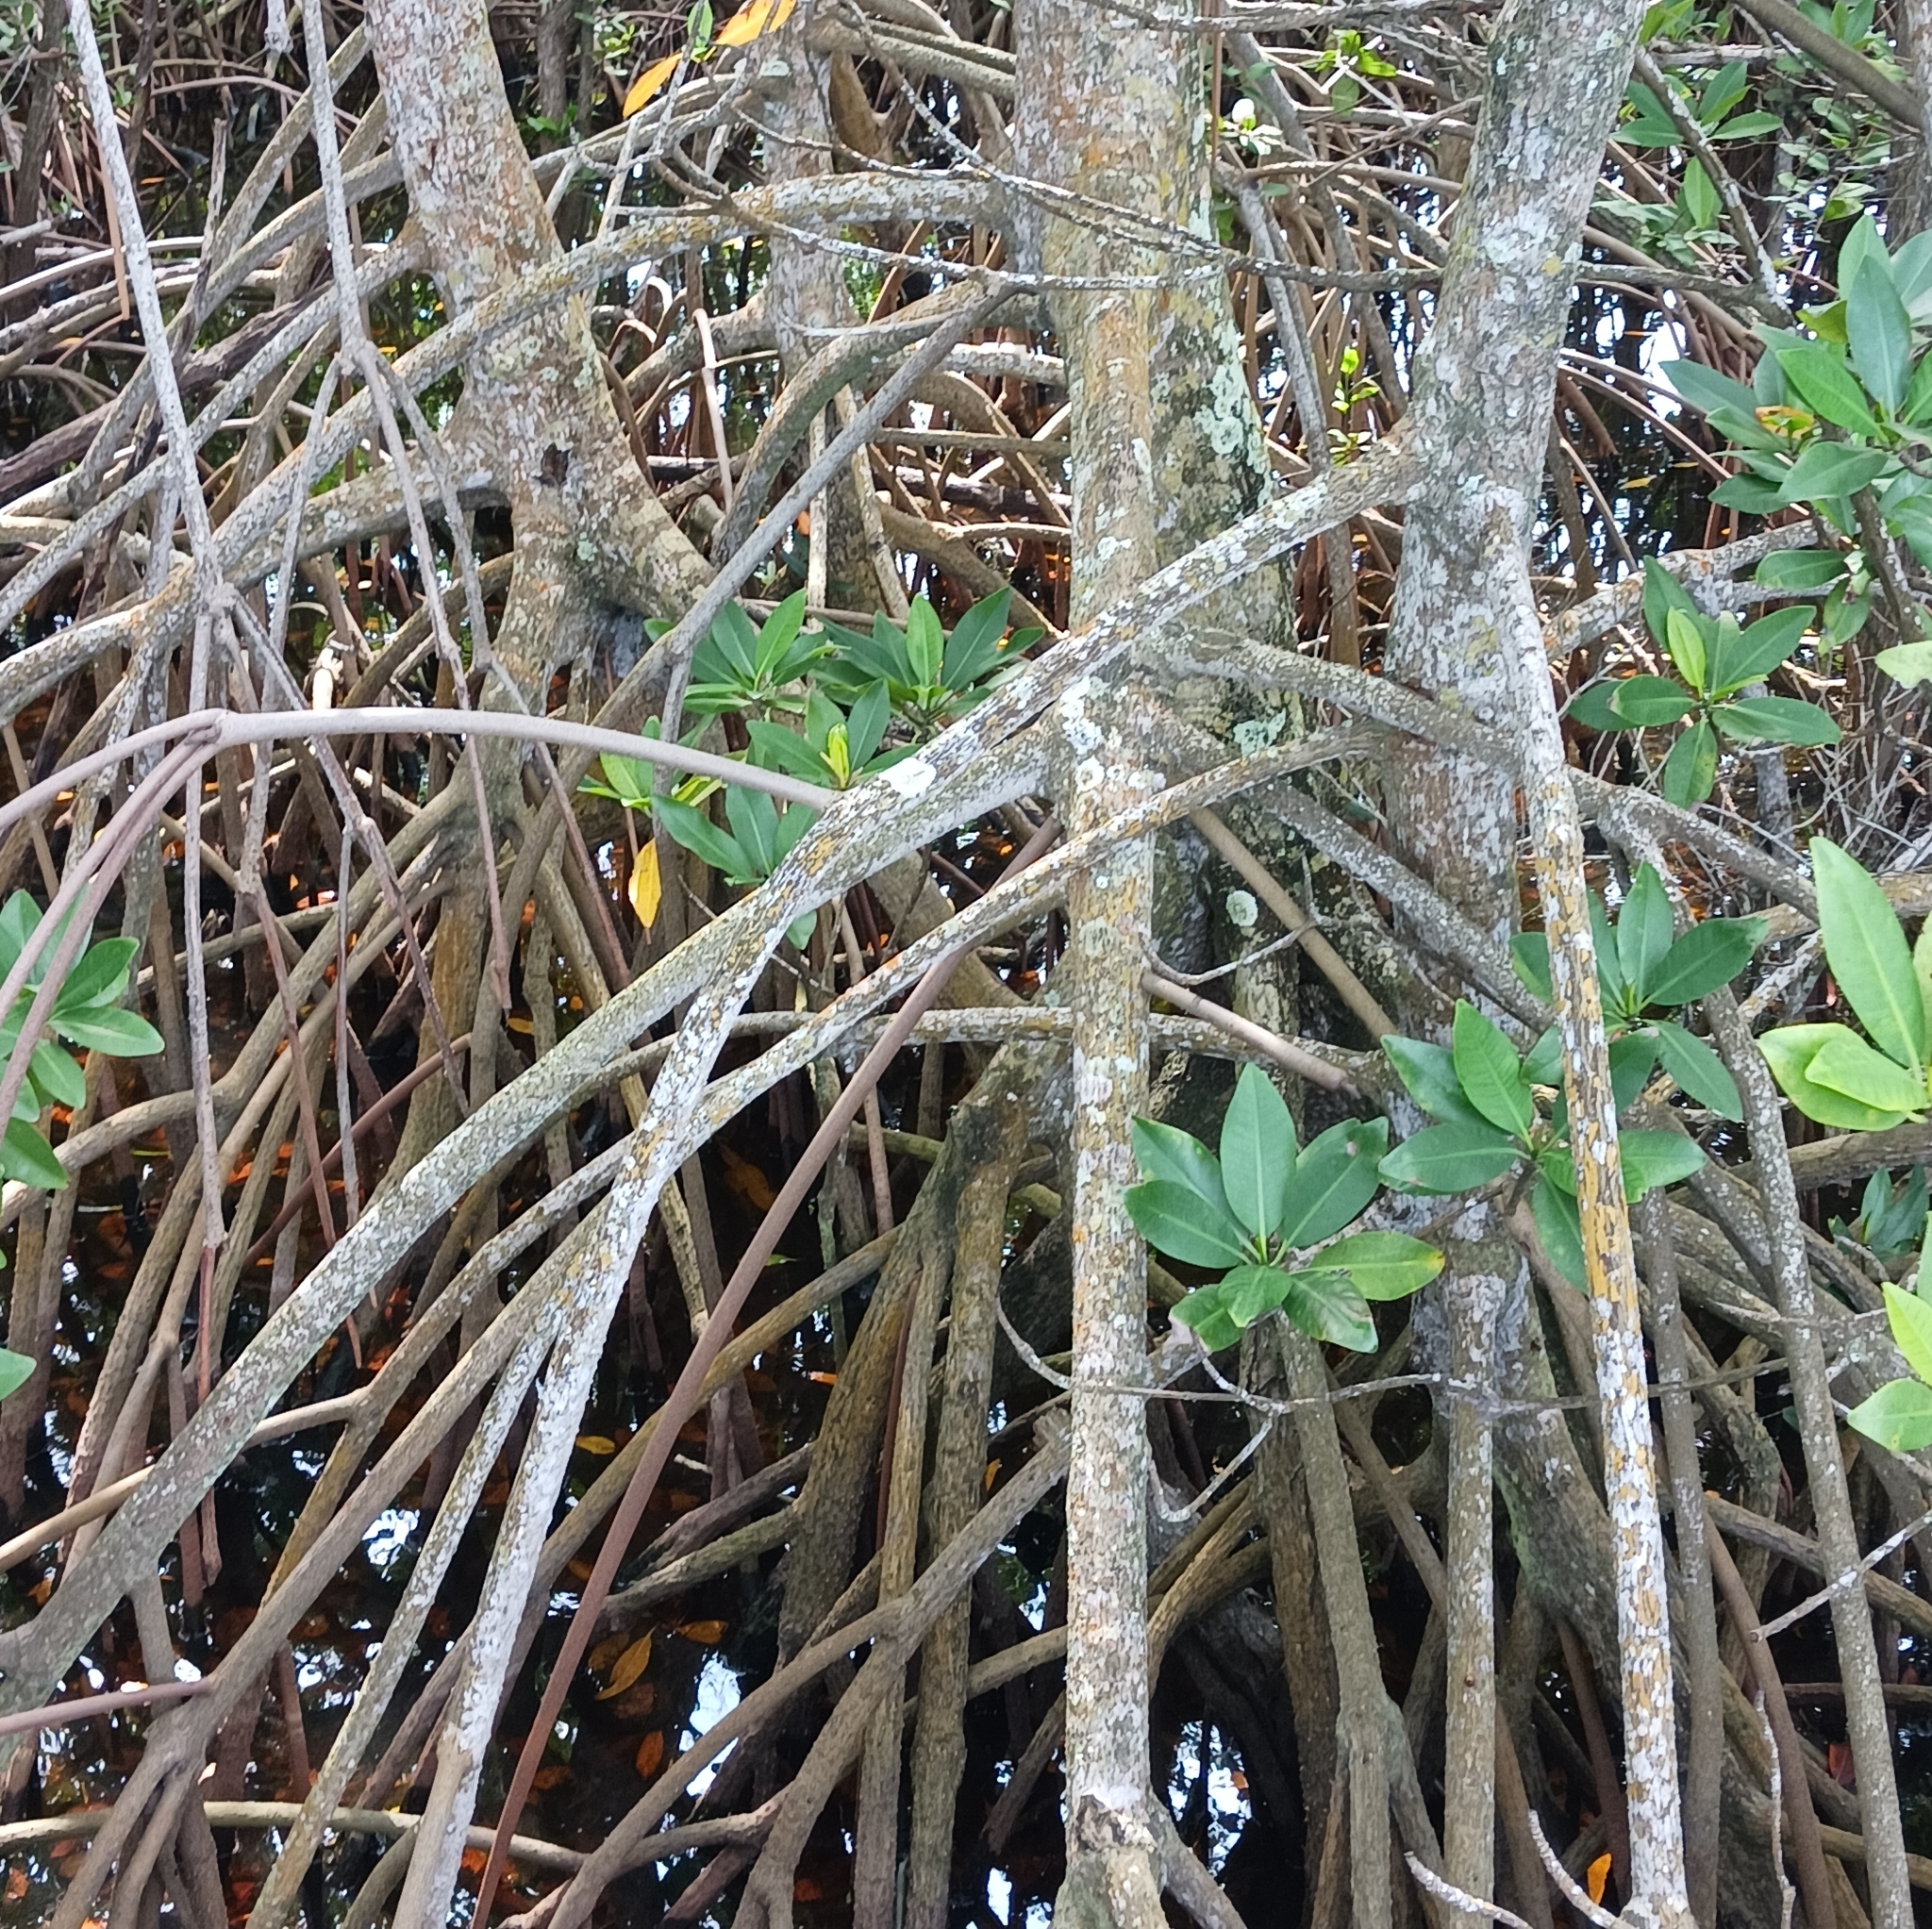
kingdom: Plantae
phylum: Tracheophyta
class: Magnoliopsida
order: Malpighiales
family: Rhizophoraceae
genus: Rhizophora
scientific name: Rhizophora mangle
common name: Red mangrove
